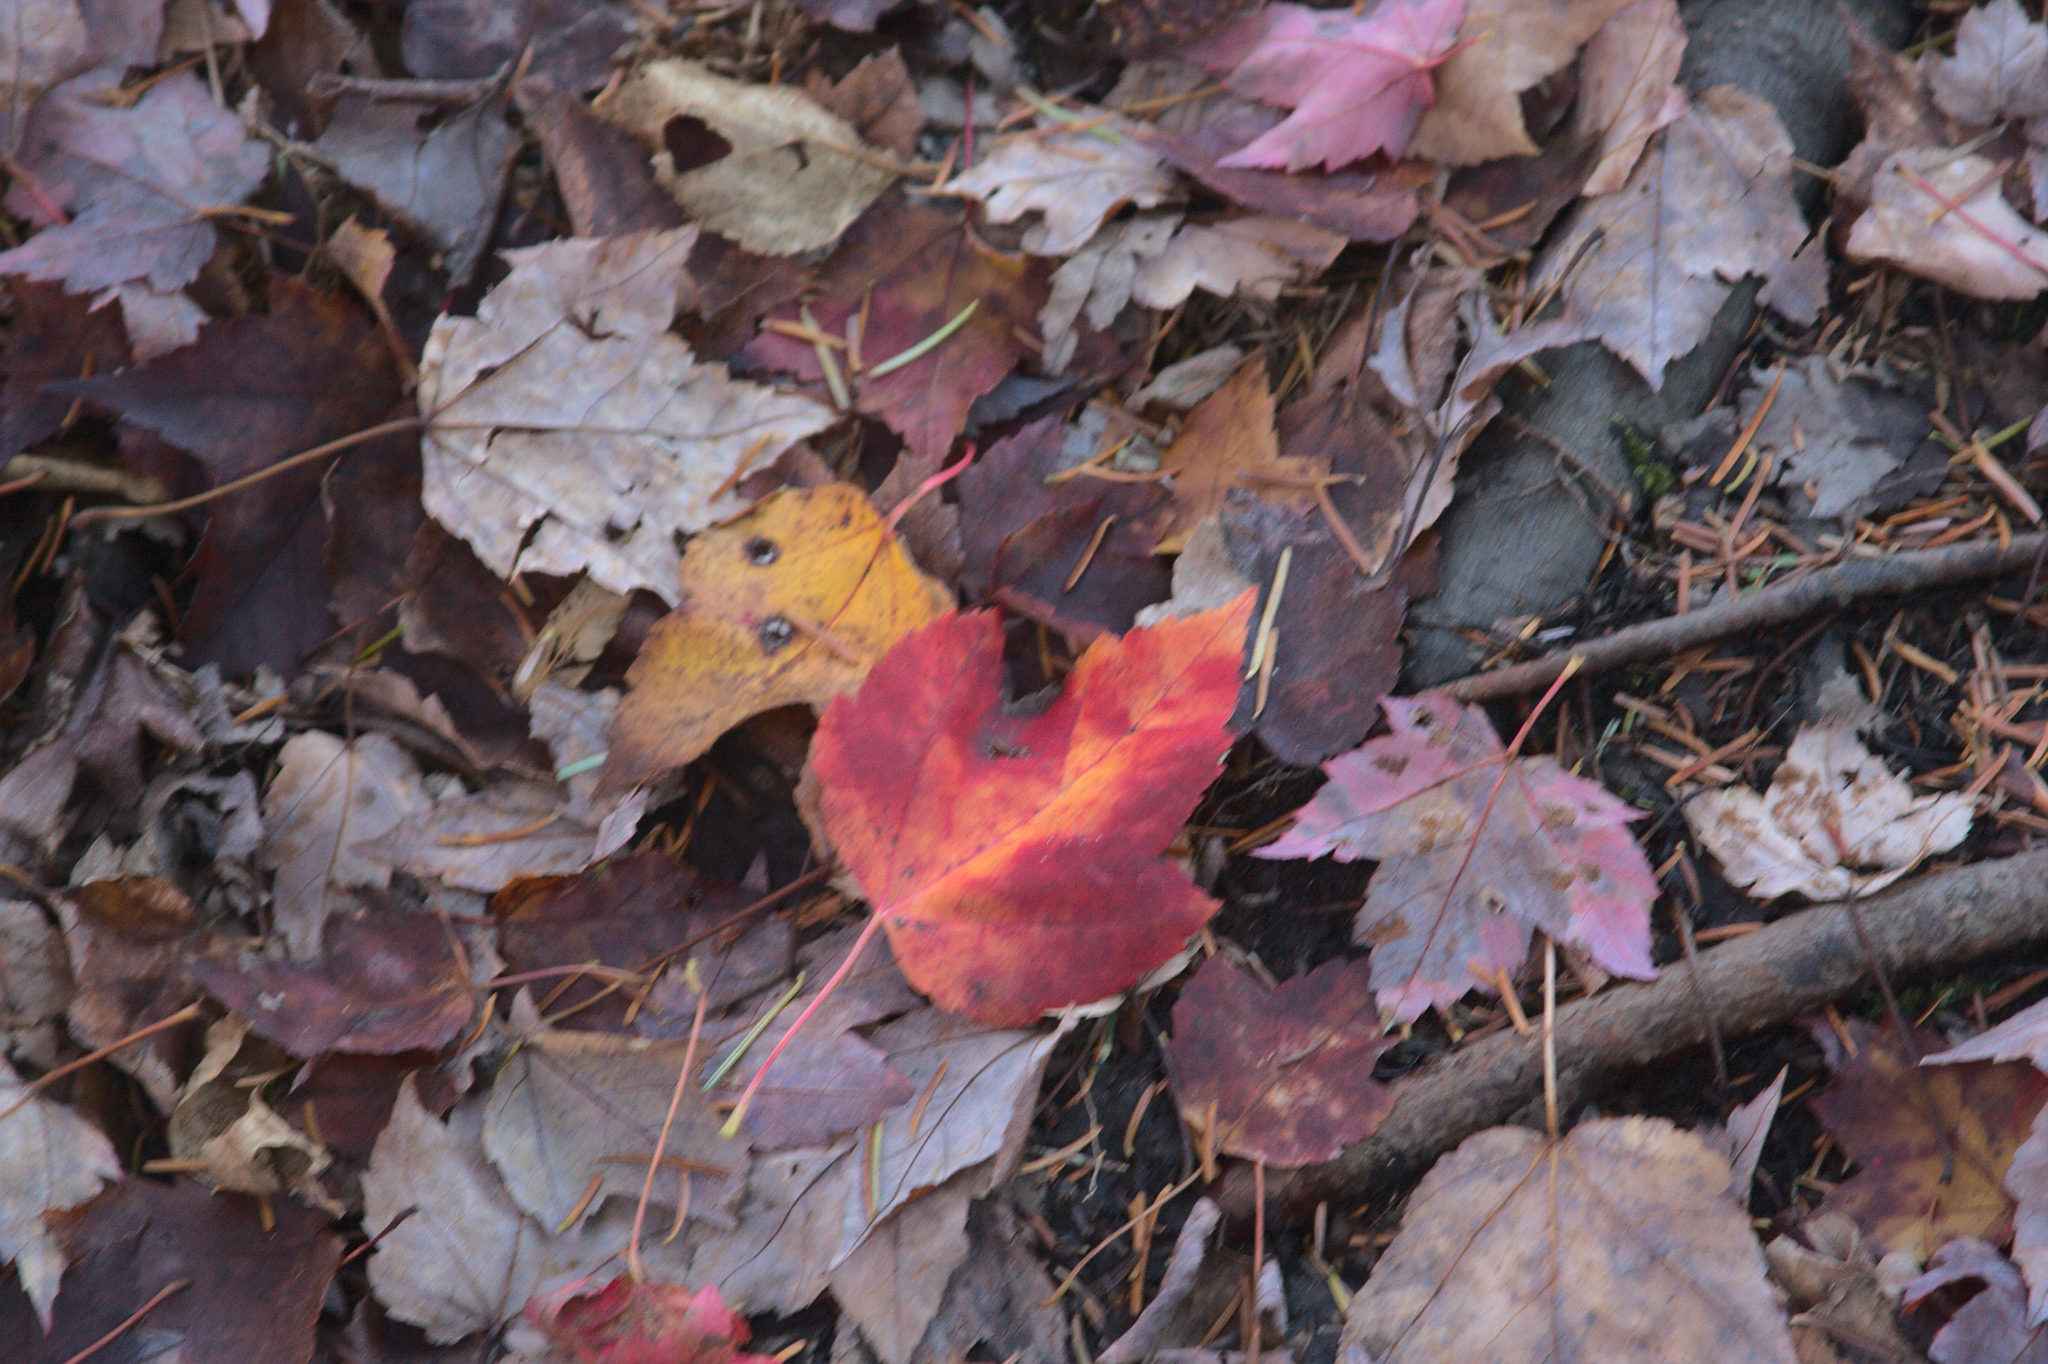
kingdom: Plantae
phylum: Tracheophyta
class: Magnoliopsida
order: Sapindales
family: Sapindaceae
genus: Acer
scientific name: Acer rubrum
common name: Red maple
